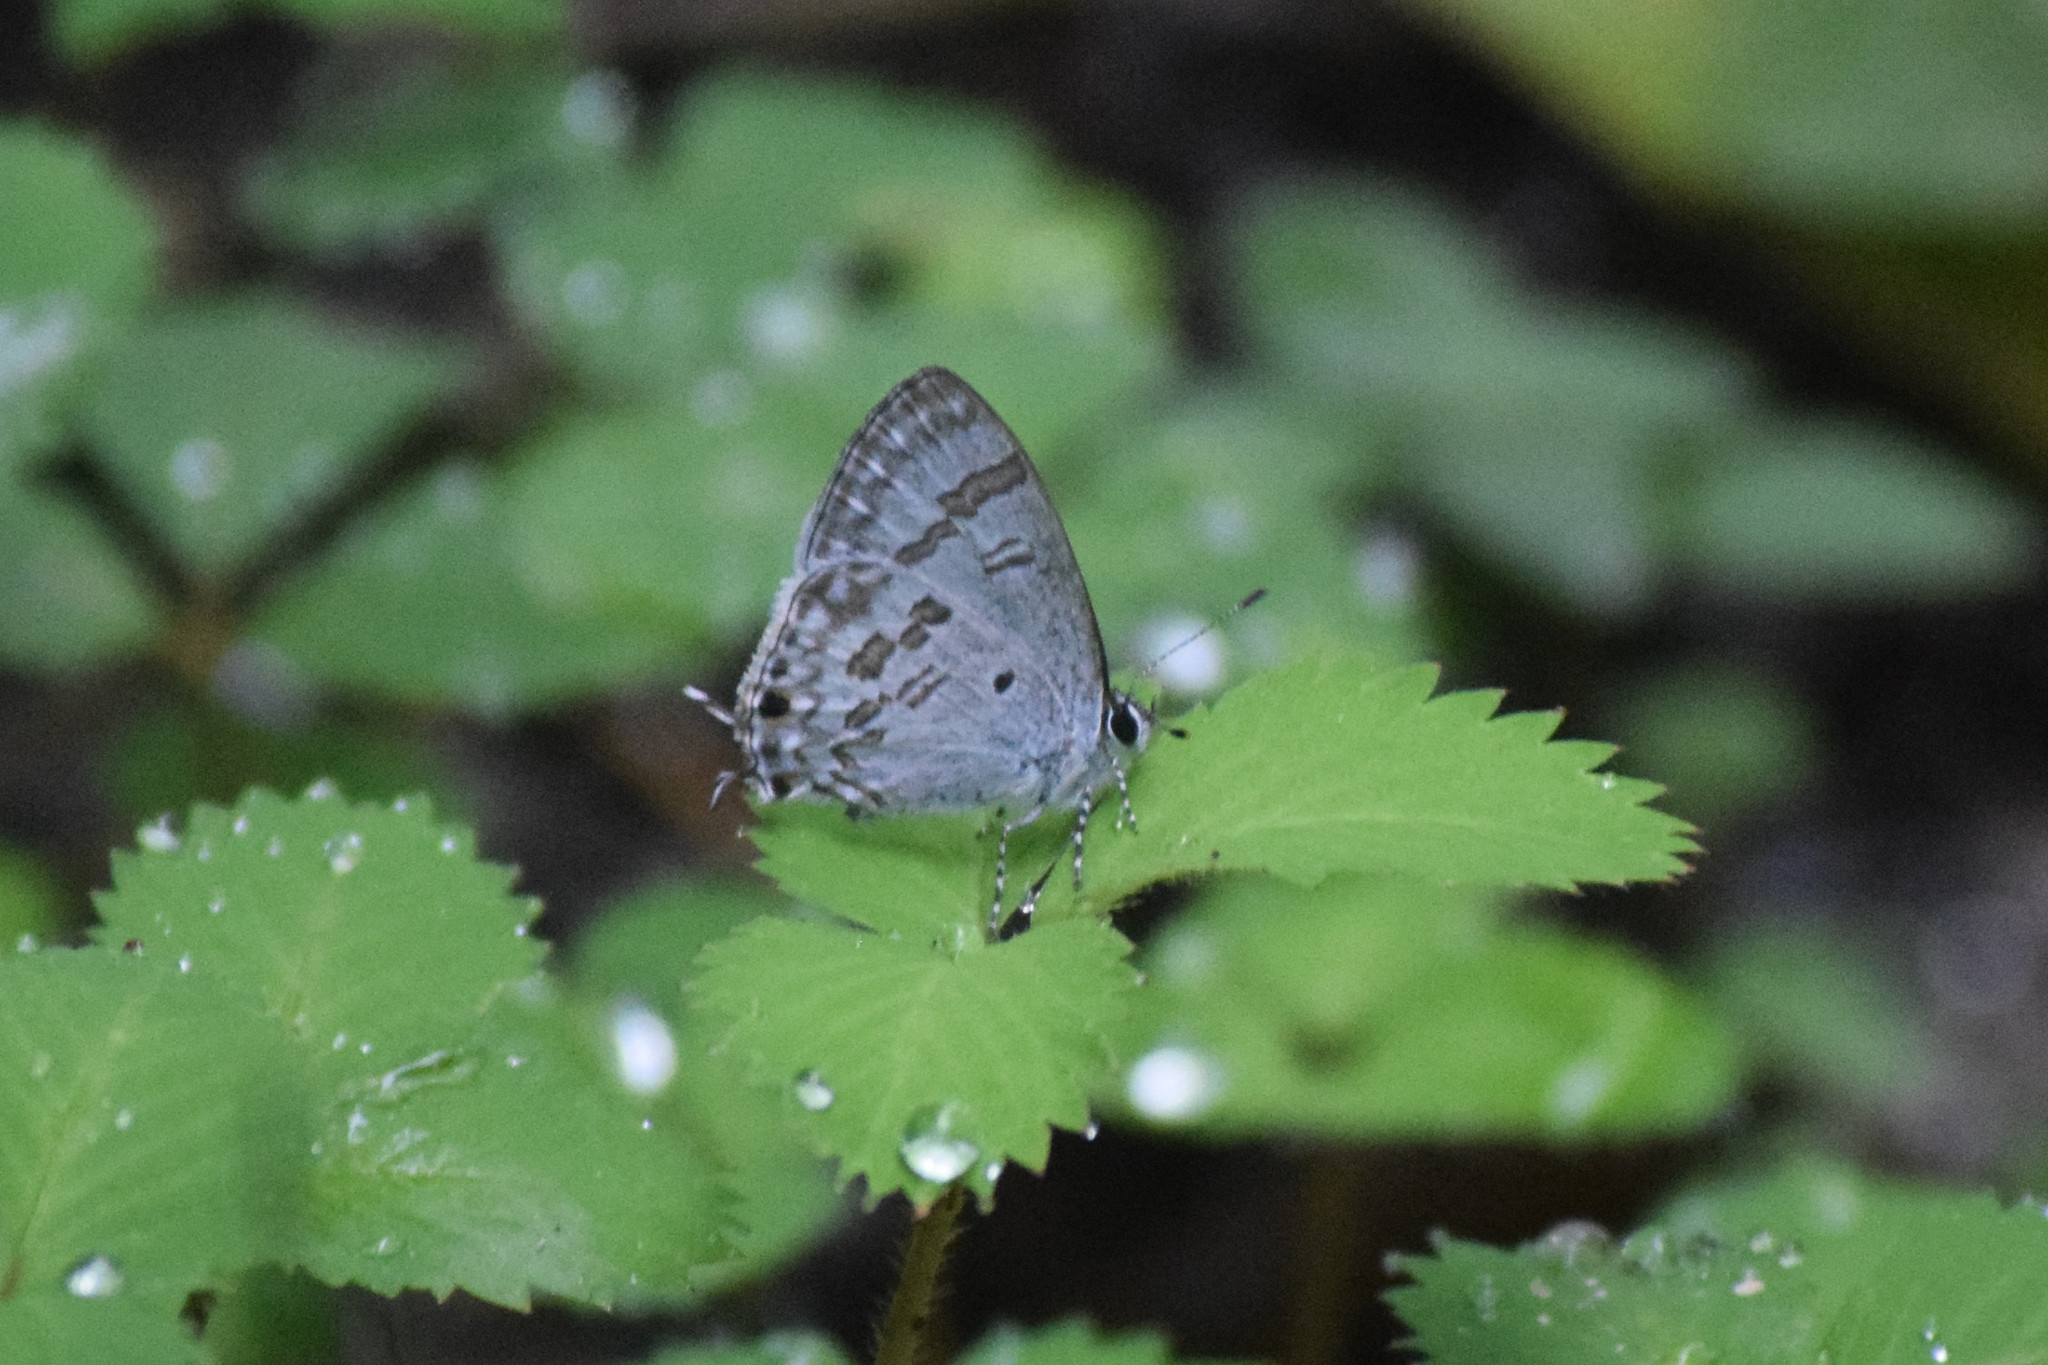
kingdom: Animalia
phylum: Arthropoda
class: Insecta
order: Lepidoptera
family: Lycaenidae
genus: Chliaria
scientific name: Chliaria kina
